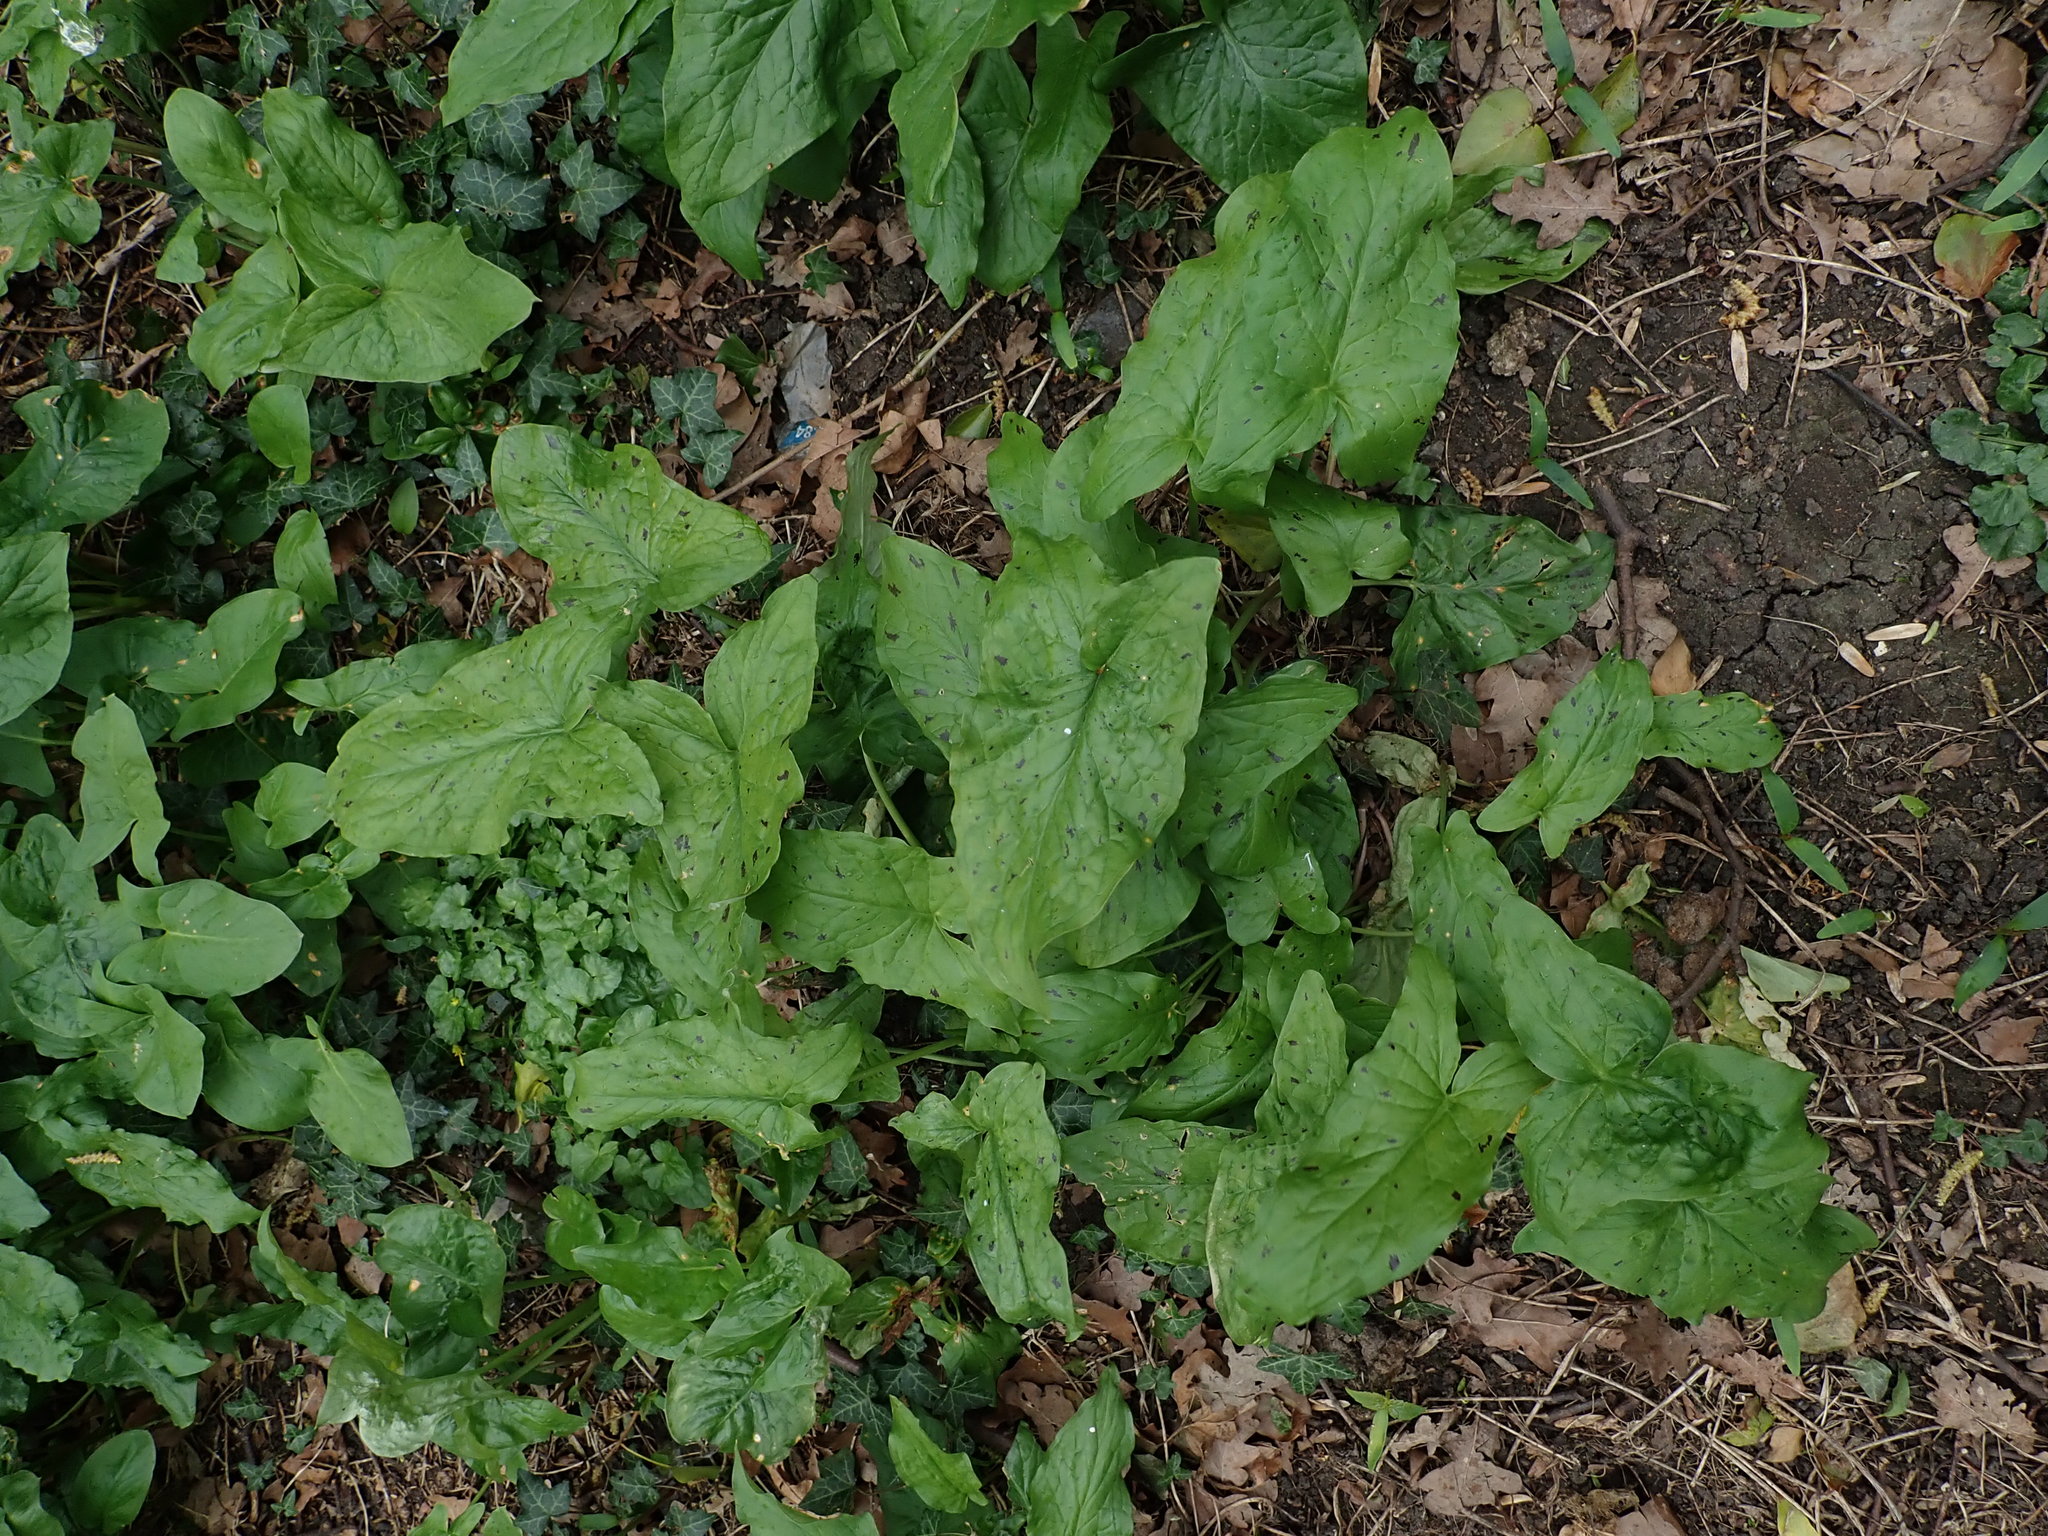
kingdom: Plantae
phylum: Tracheophyta
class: Liliopsida
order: Alismatales
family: Araceae
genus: Arum
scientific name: Arum maculatum
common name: Lords-and-ladies
